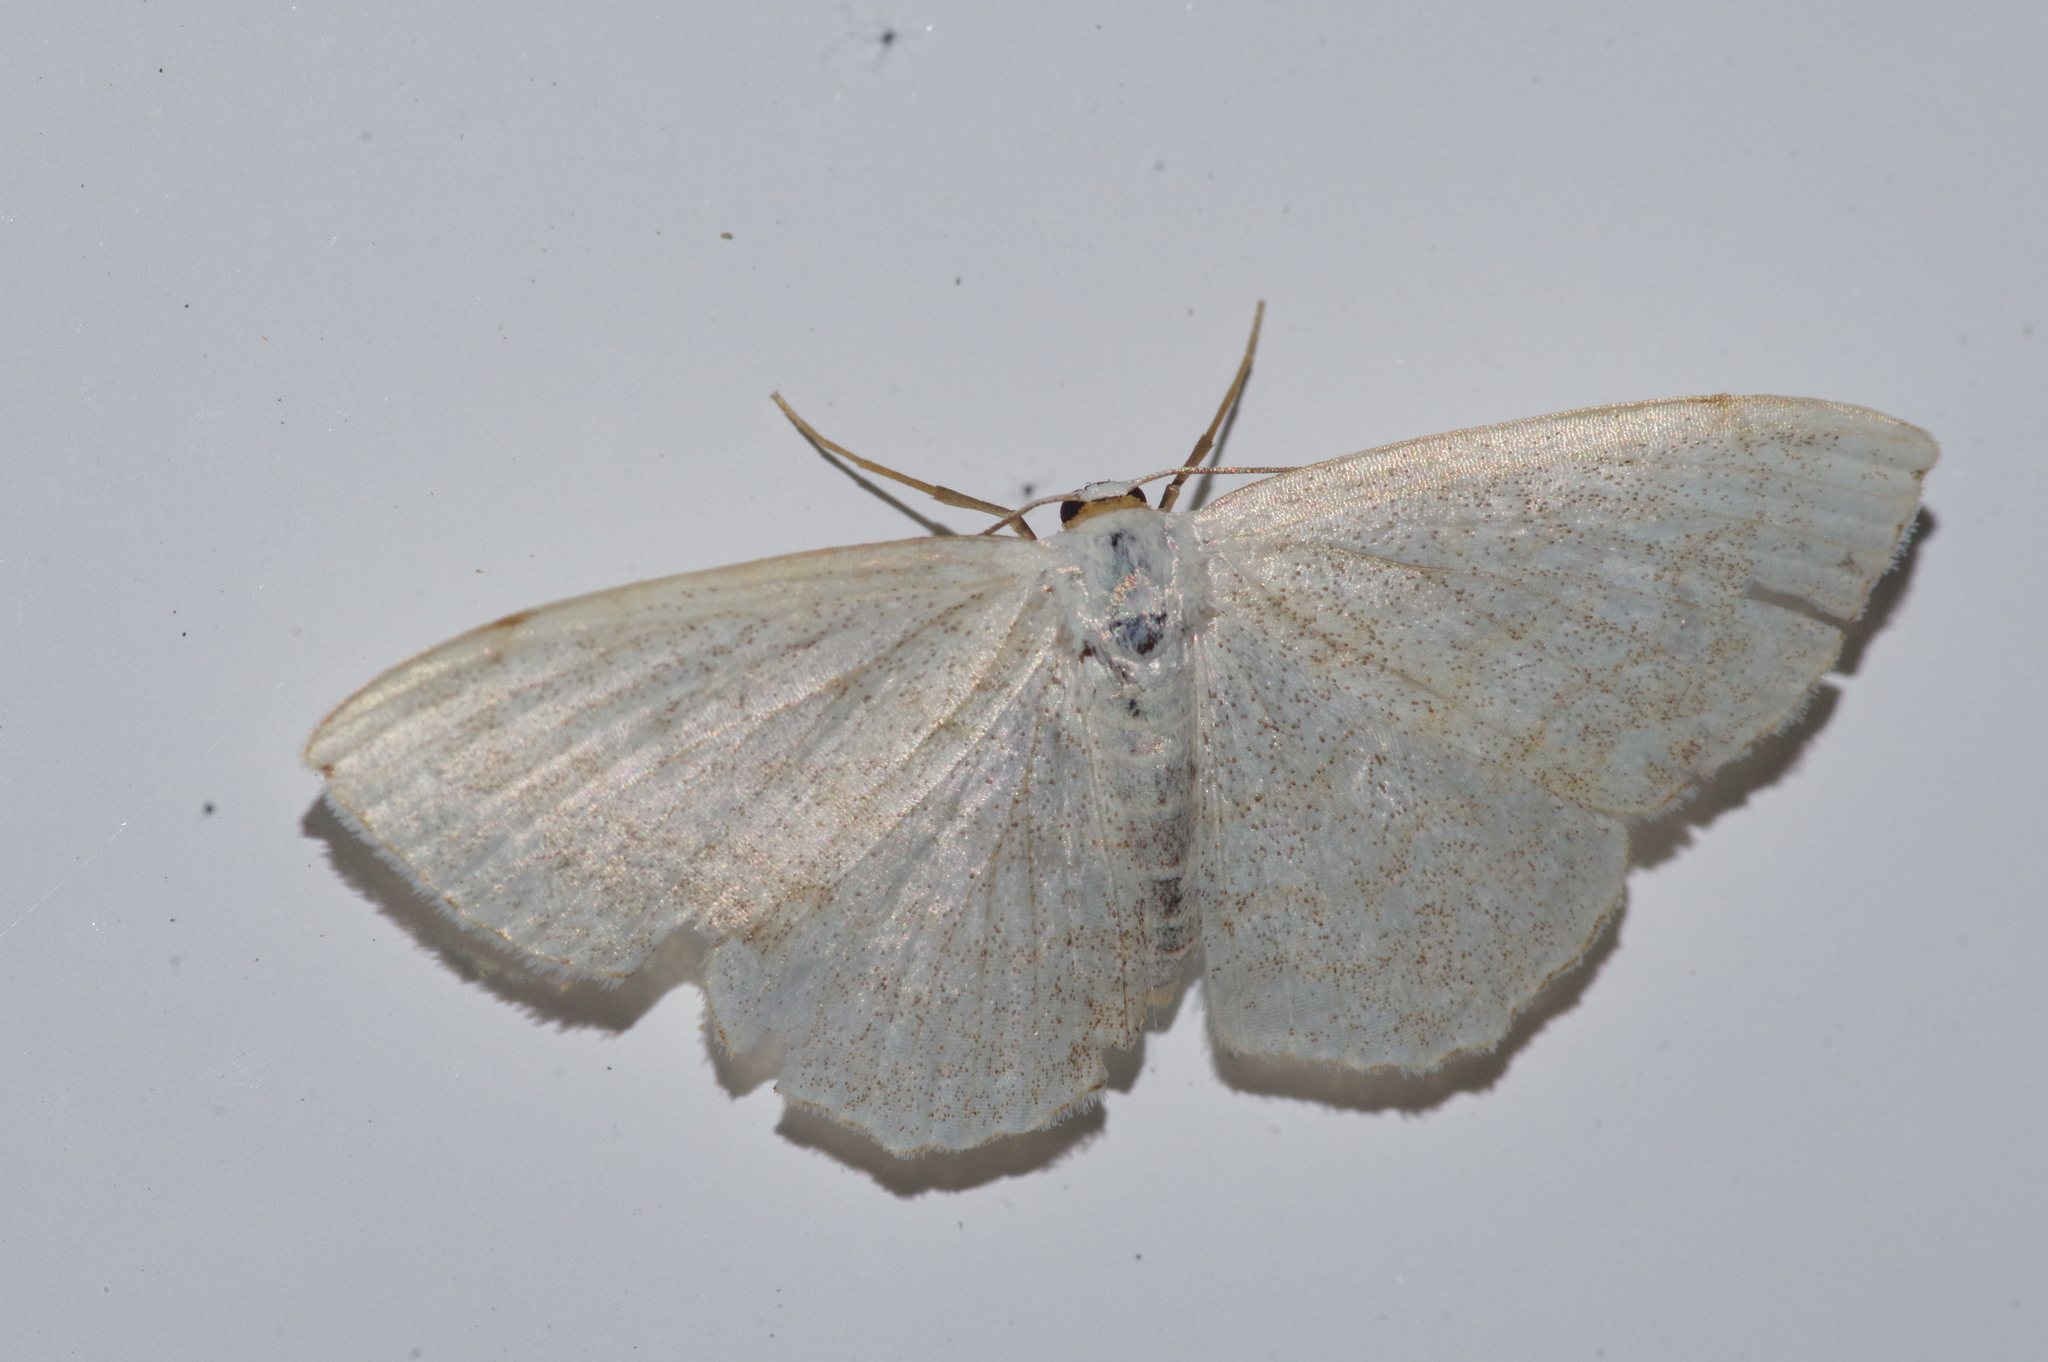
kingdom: Animalia
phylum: Arthropoda
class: Insecta
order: Lepidoptera
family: Geometridae
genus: Cabera
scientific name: Cabera purus
